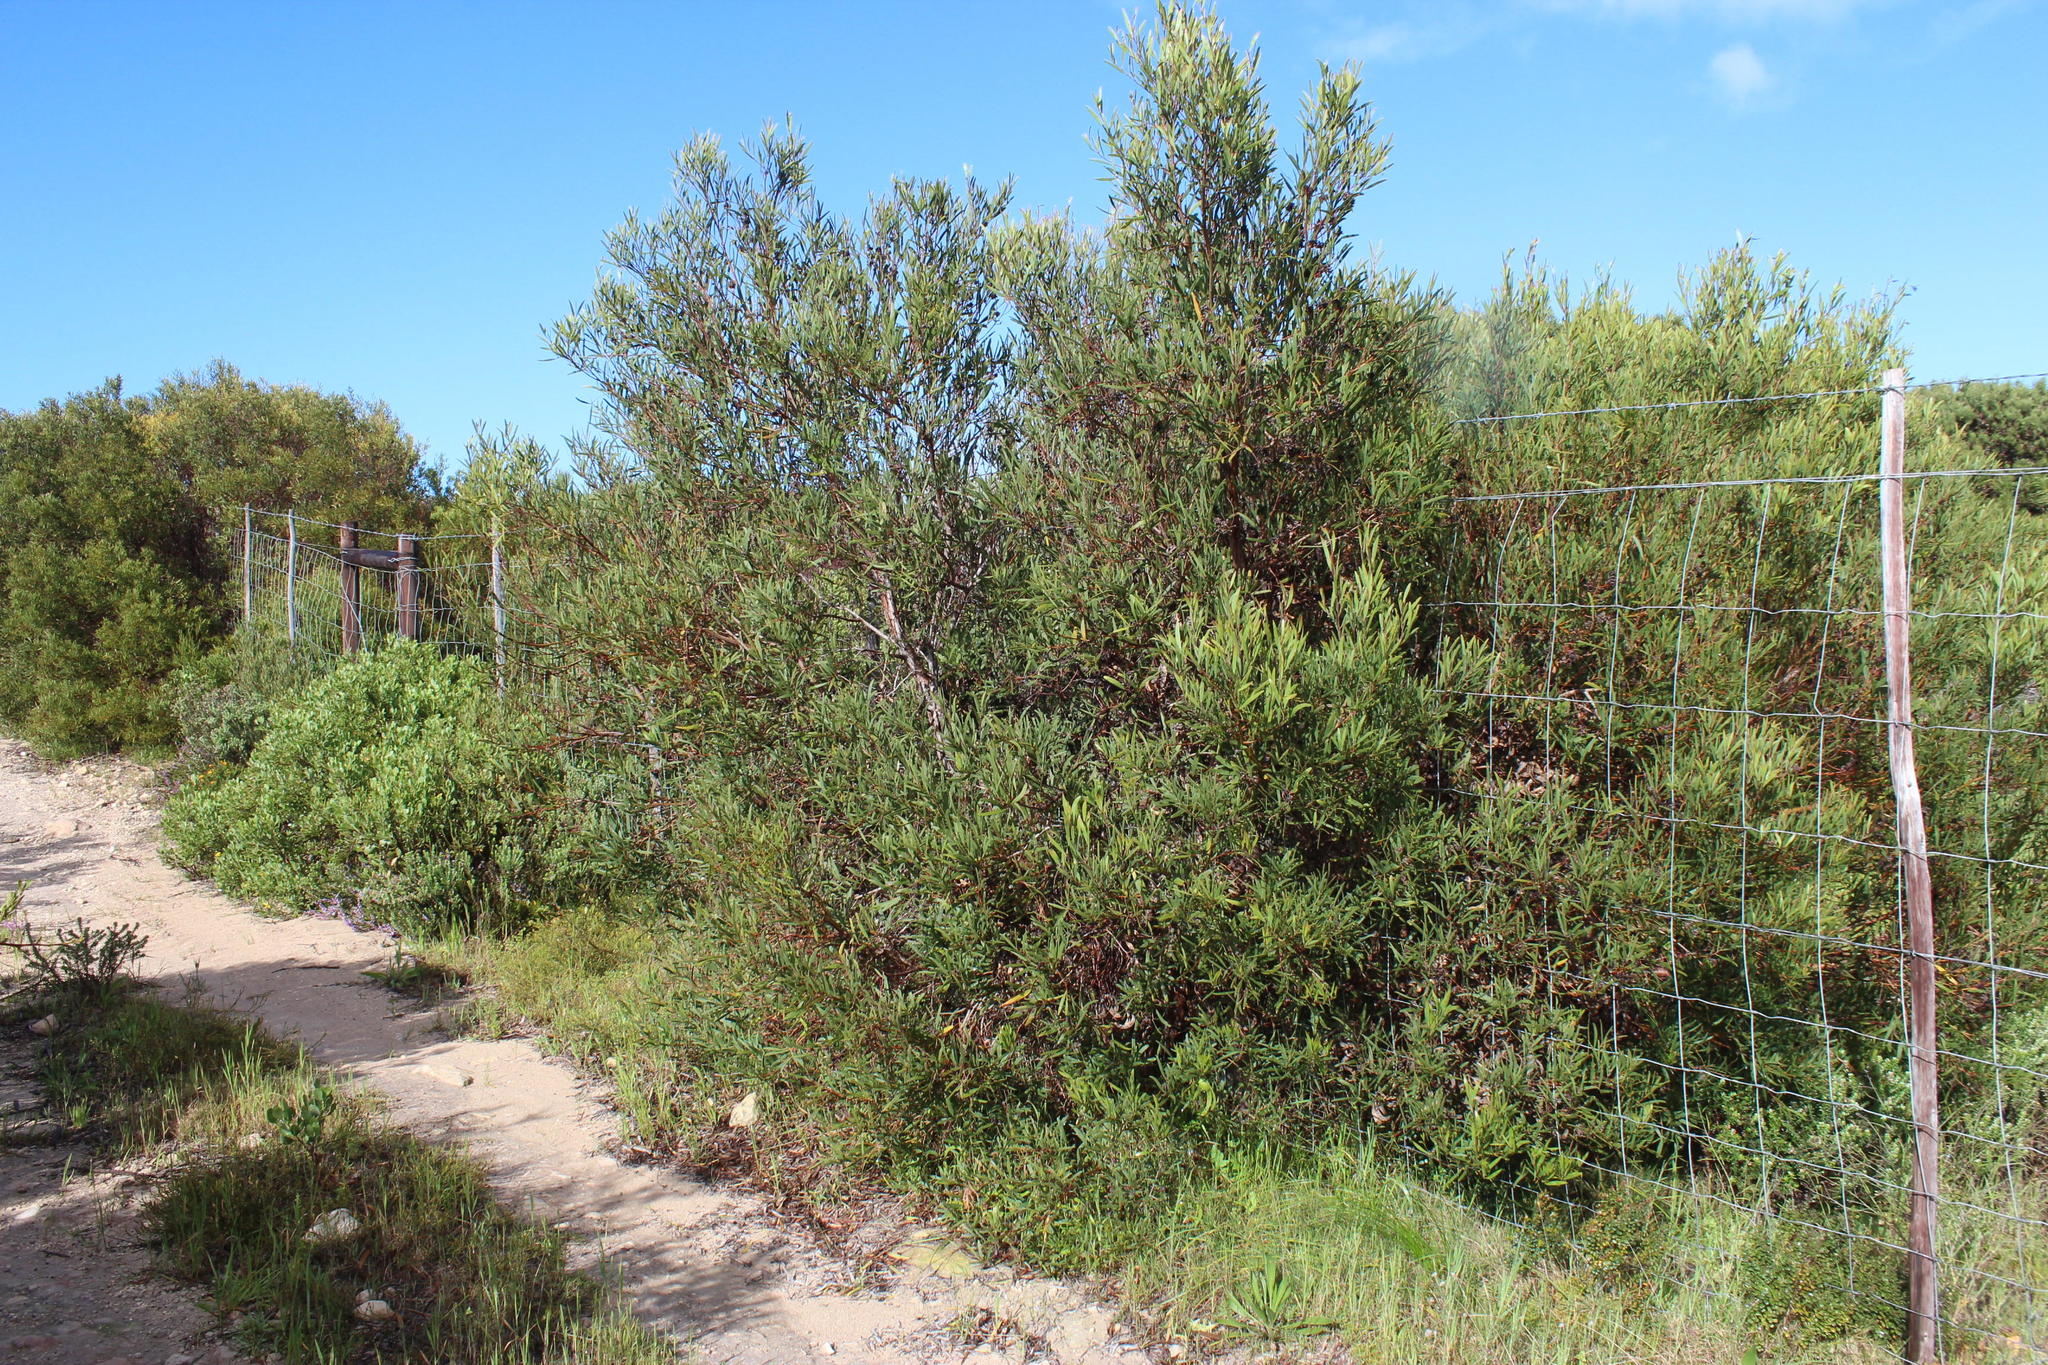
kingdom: Plantae
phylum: Tracheophyta
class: Magnoliopsida
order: Fabales
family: Fabaceae
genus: Acacia
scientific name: Acacia cyclops
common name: Coastal wattle
